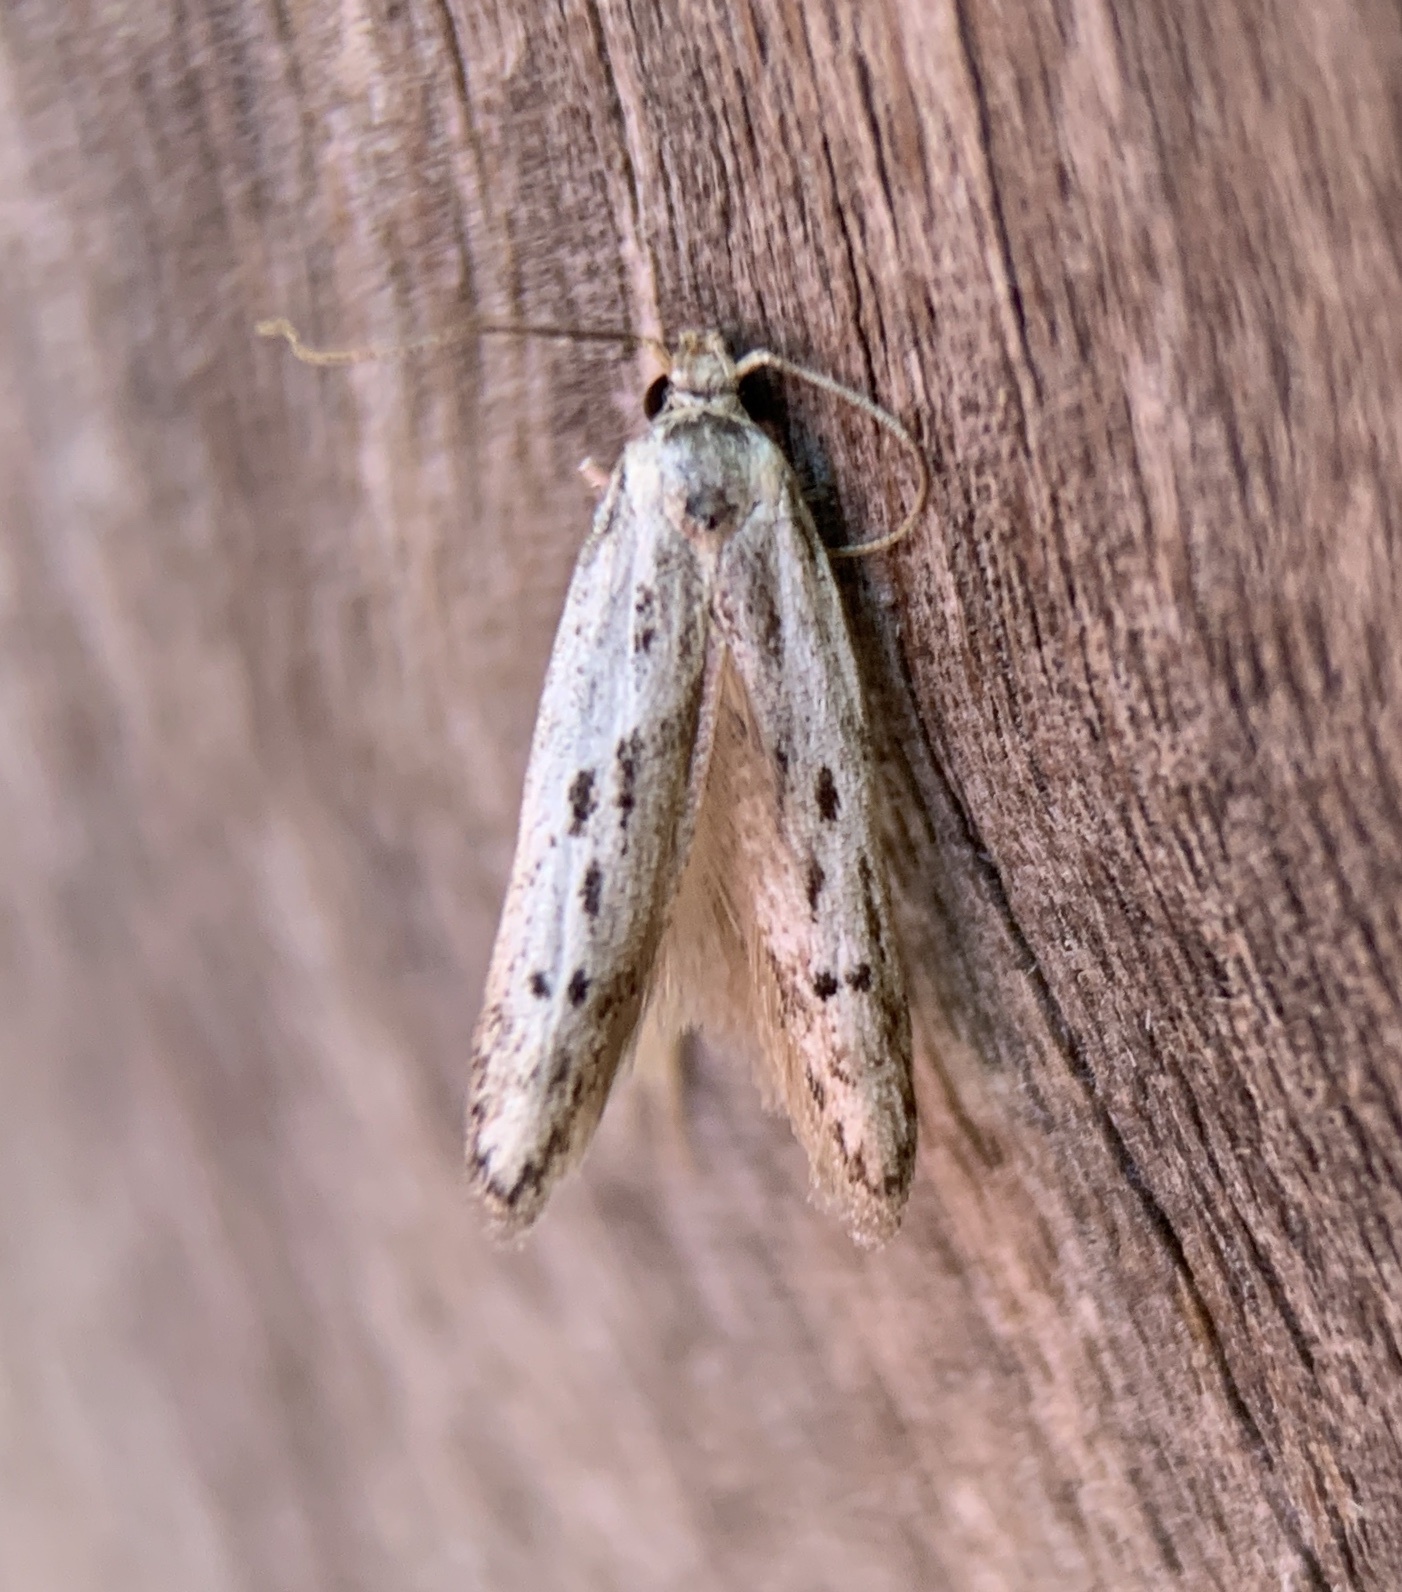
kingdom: Animalia
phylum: Arthropoda
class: Insecta
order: Lepidoptera
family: Blastobasidae
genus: Hypatopa
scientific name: Hypatopa vestaliella
